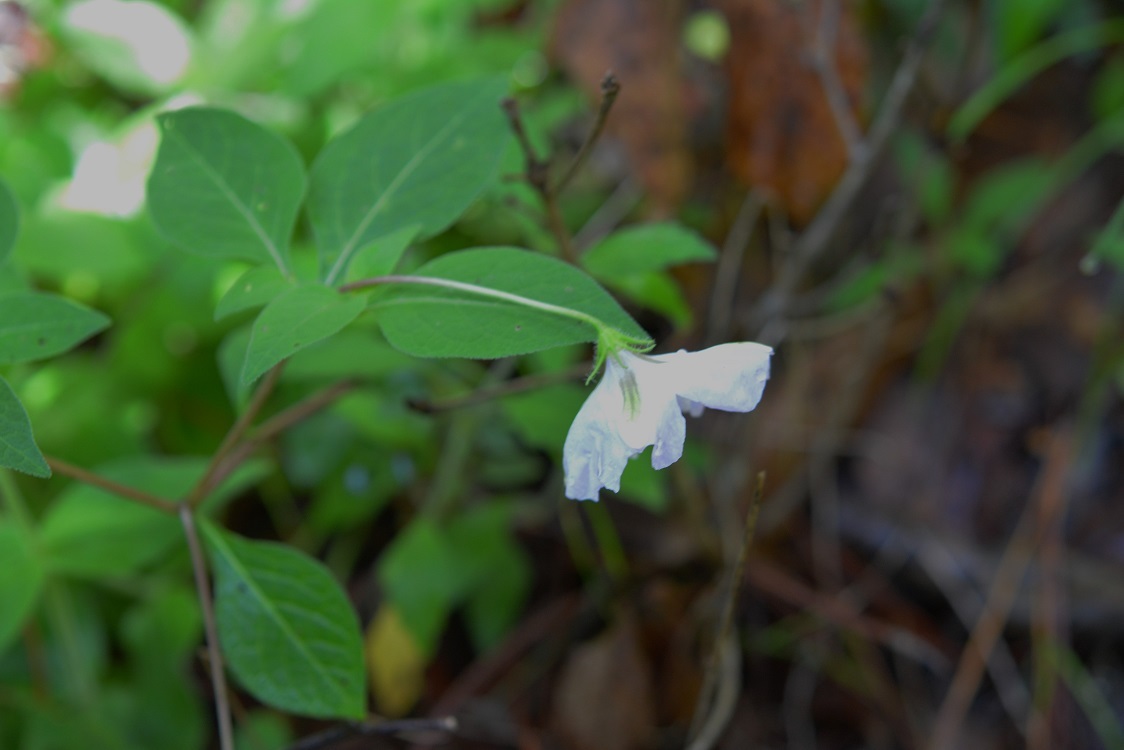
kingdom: Plantae
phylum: Tracheophyta
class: Magnoliopsida
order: Solanales
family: Solanaceae
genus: Lycianthes
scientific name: Lycianthes ciliolata
